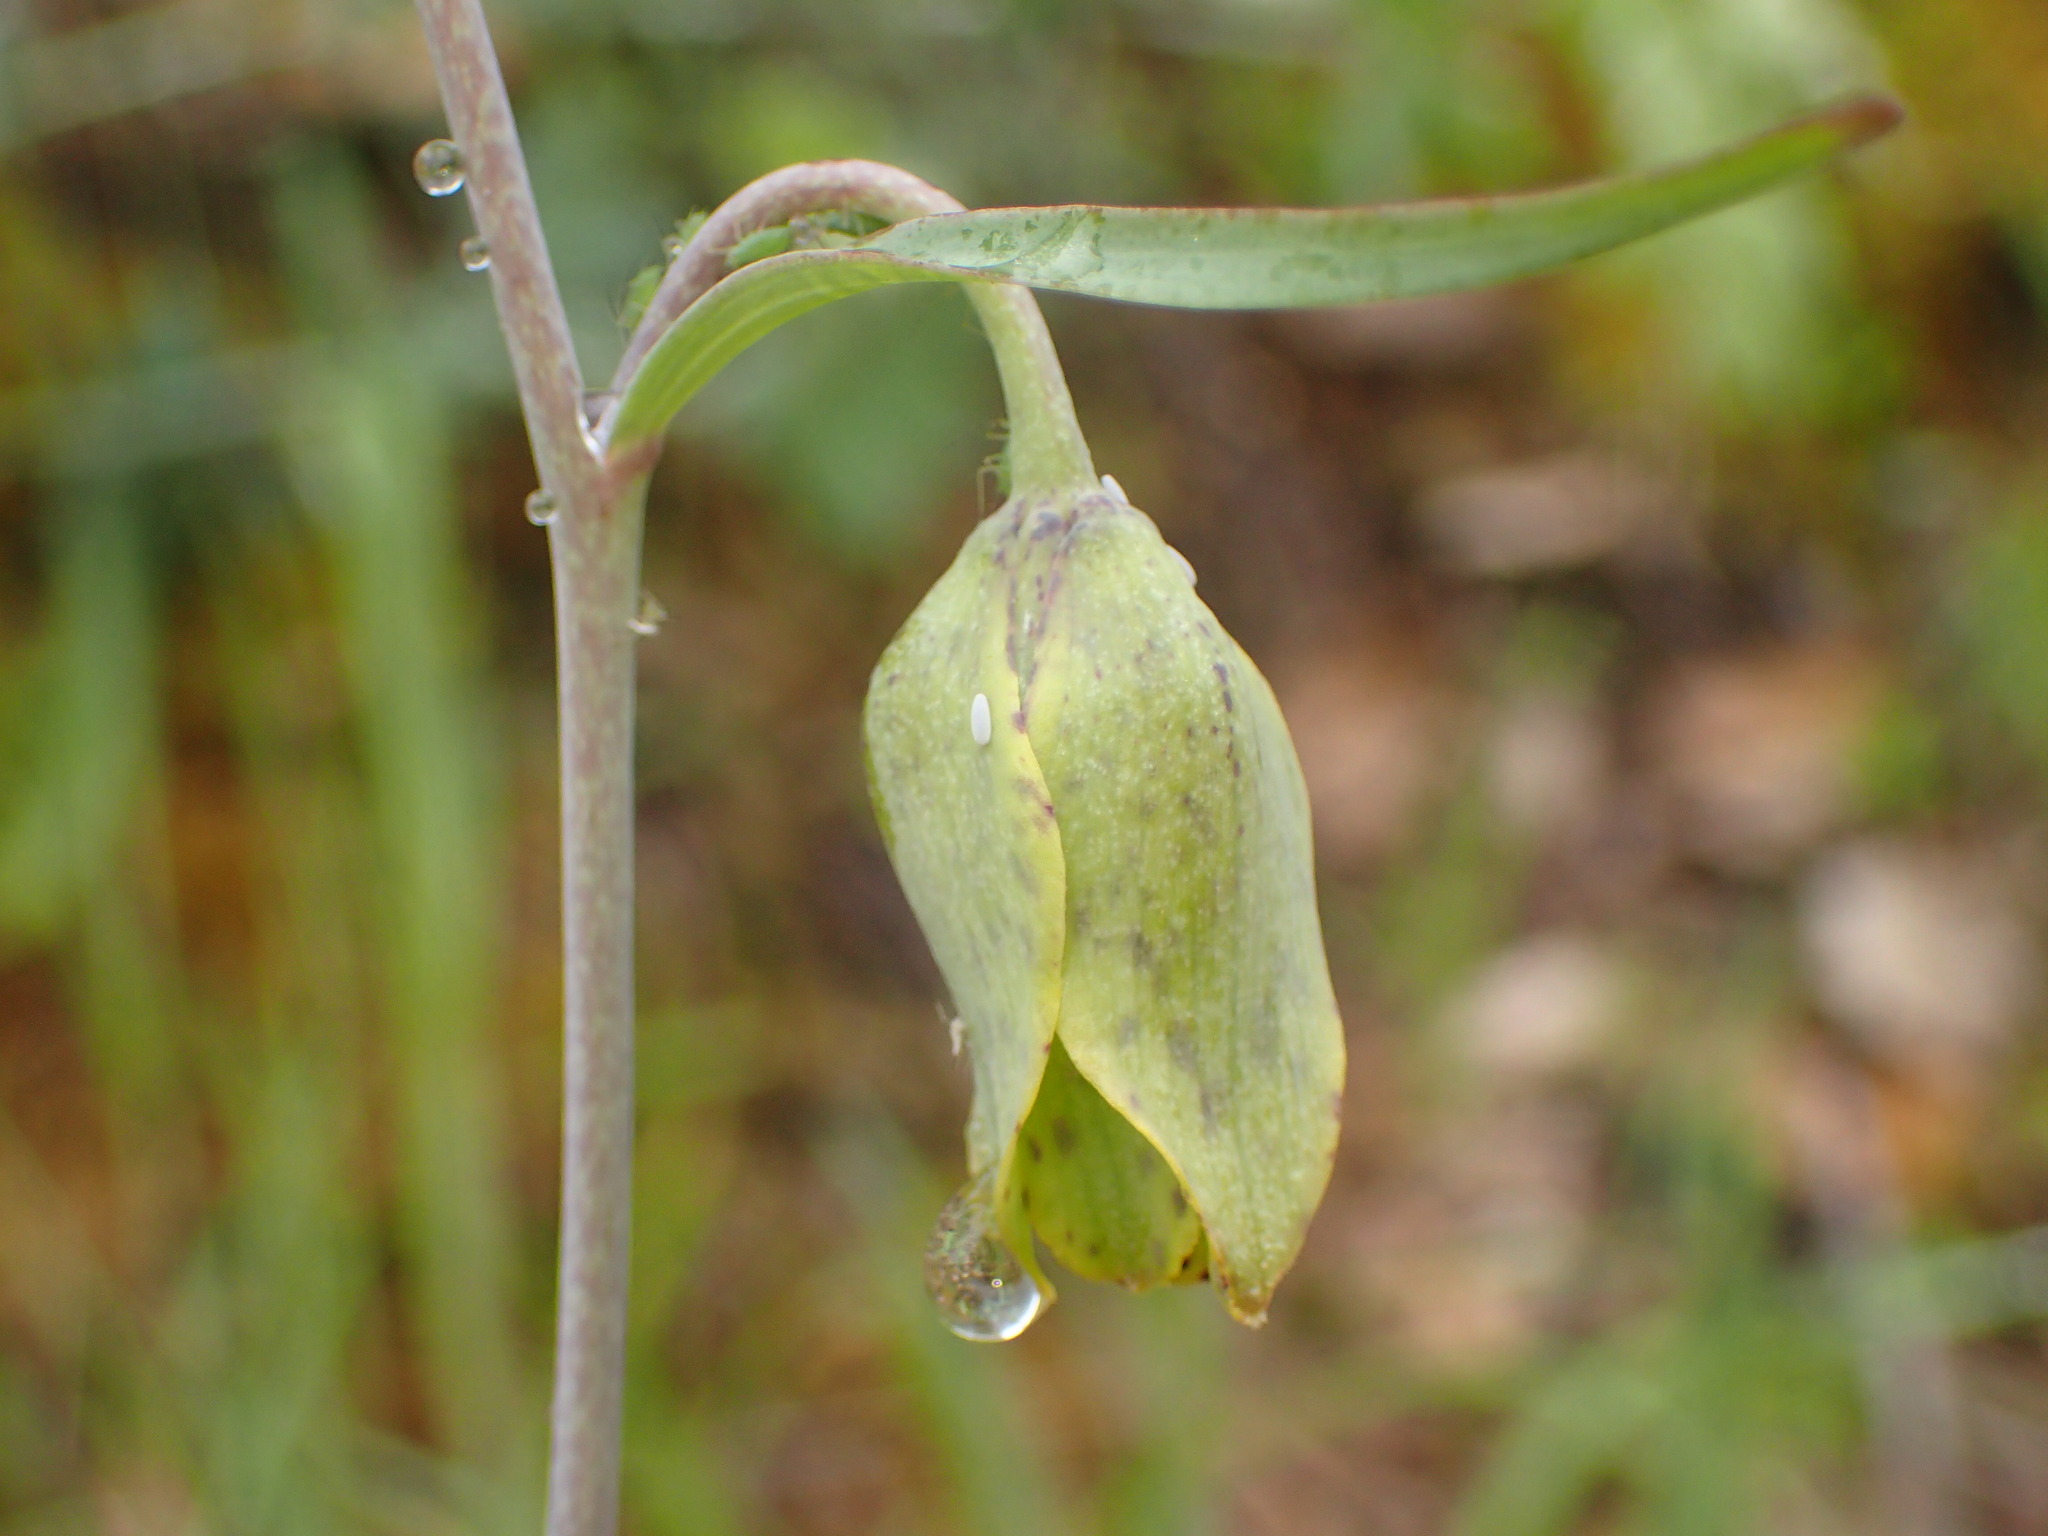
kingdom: Plantae
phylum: Tracheophyta
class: Liliopsida
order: Liliales
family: Liliaceae
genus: Fritillaria
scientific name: Fritillaria ojaiensis
